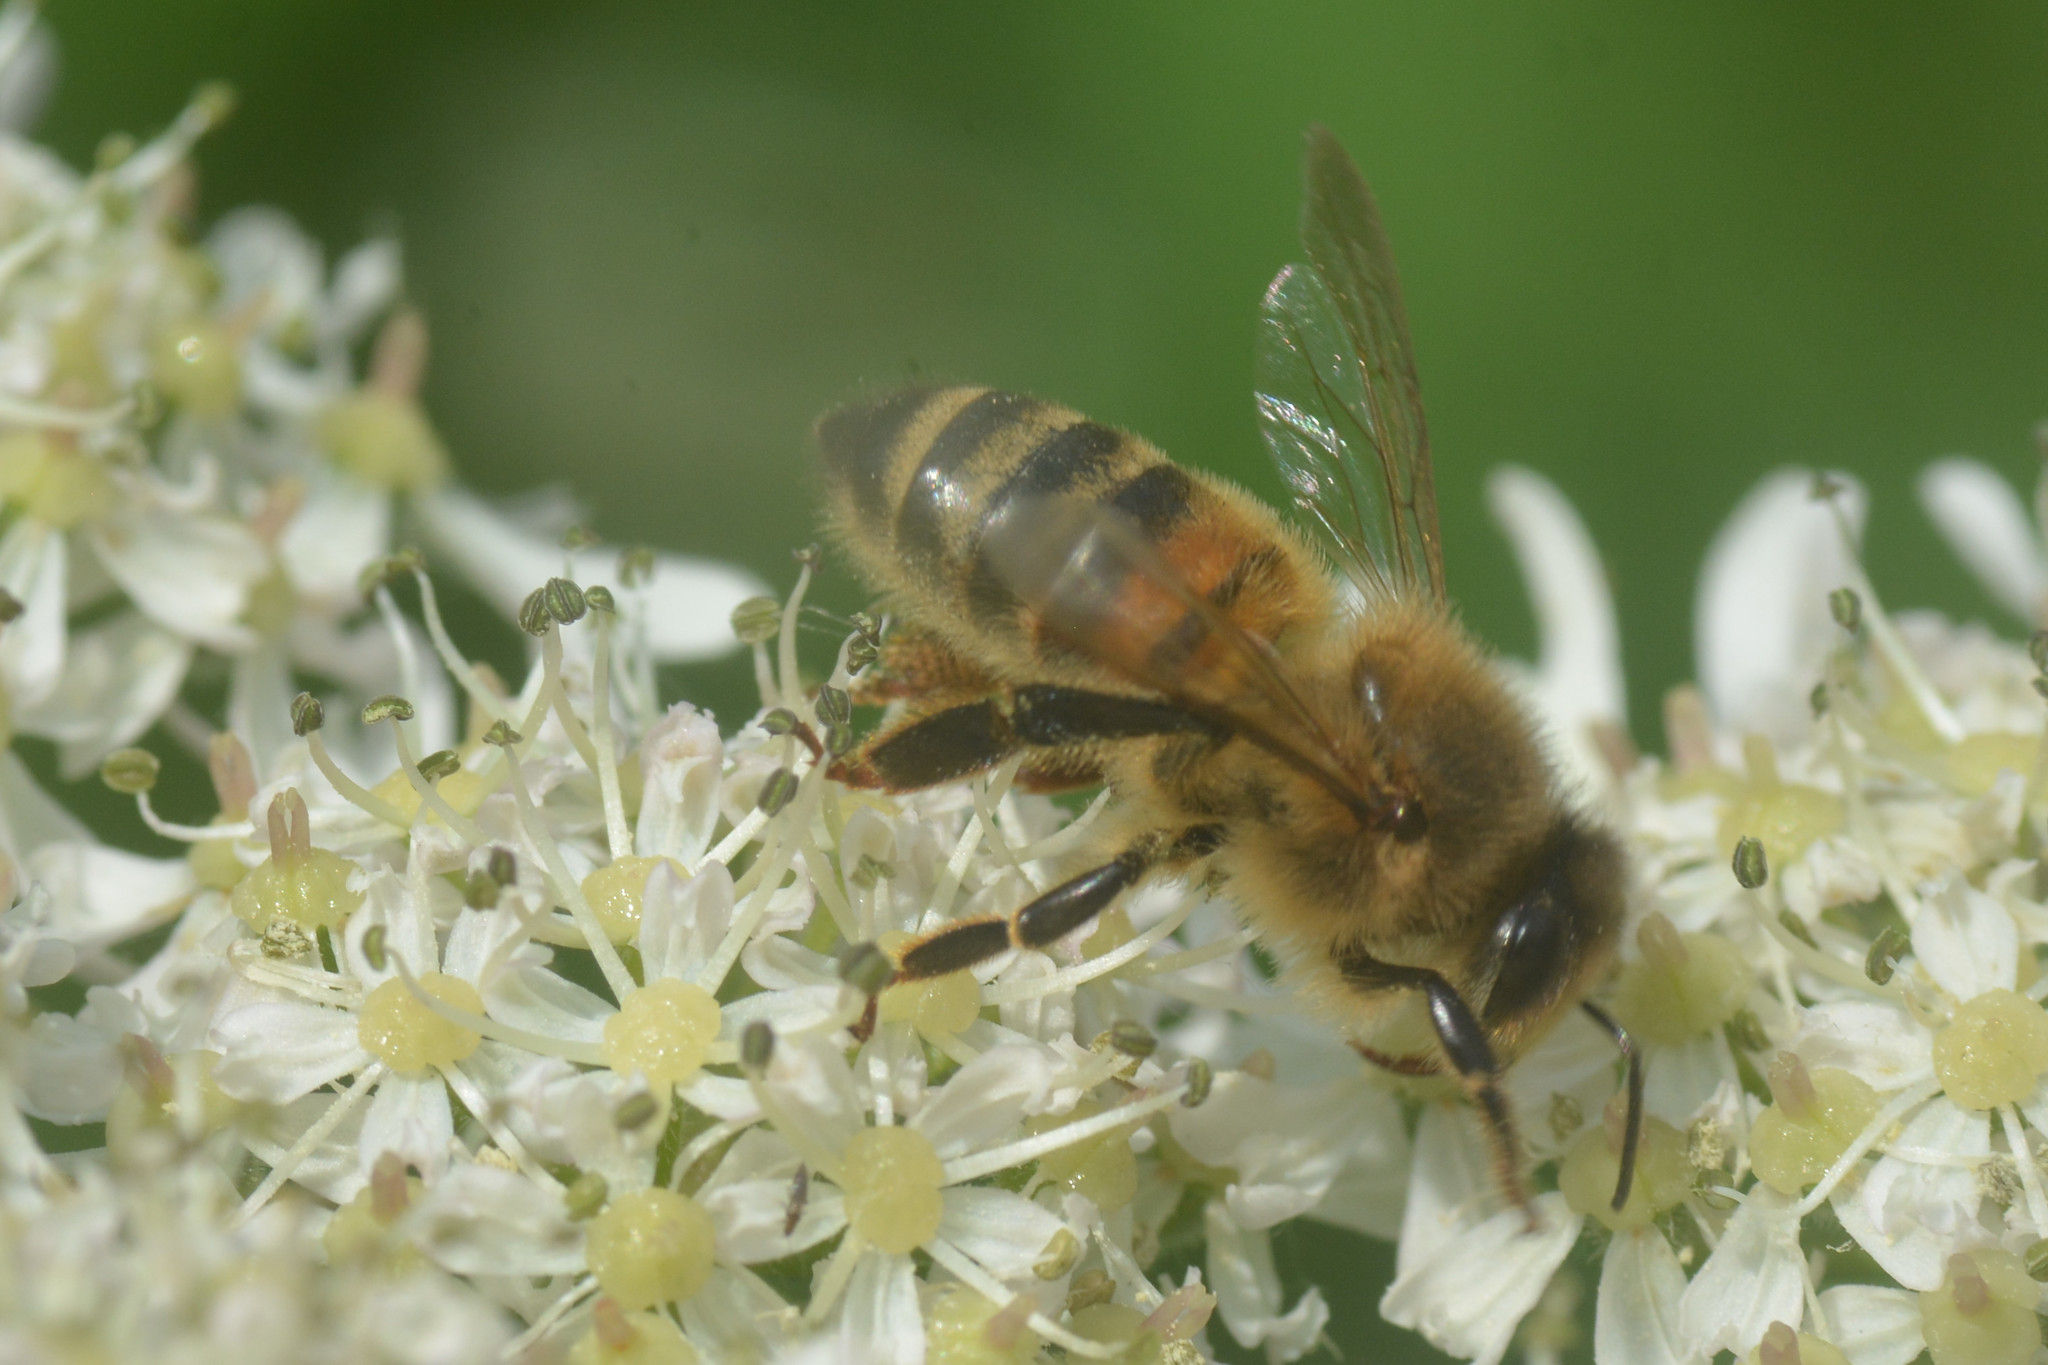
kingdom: Animalia
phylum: Arthropoda
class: Insecta
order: Hymenoptera
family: Apidae
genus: Apis
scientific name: Apis mellifera
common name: Honey bee
